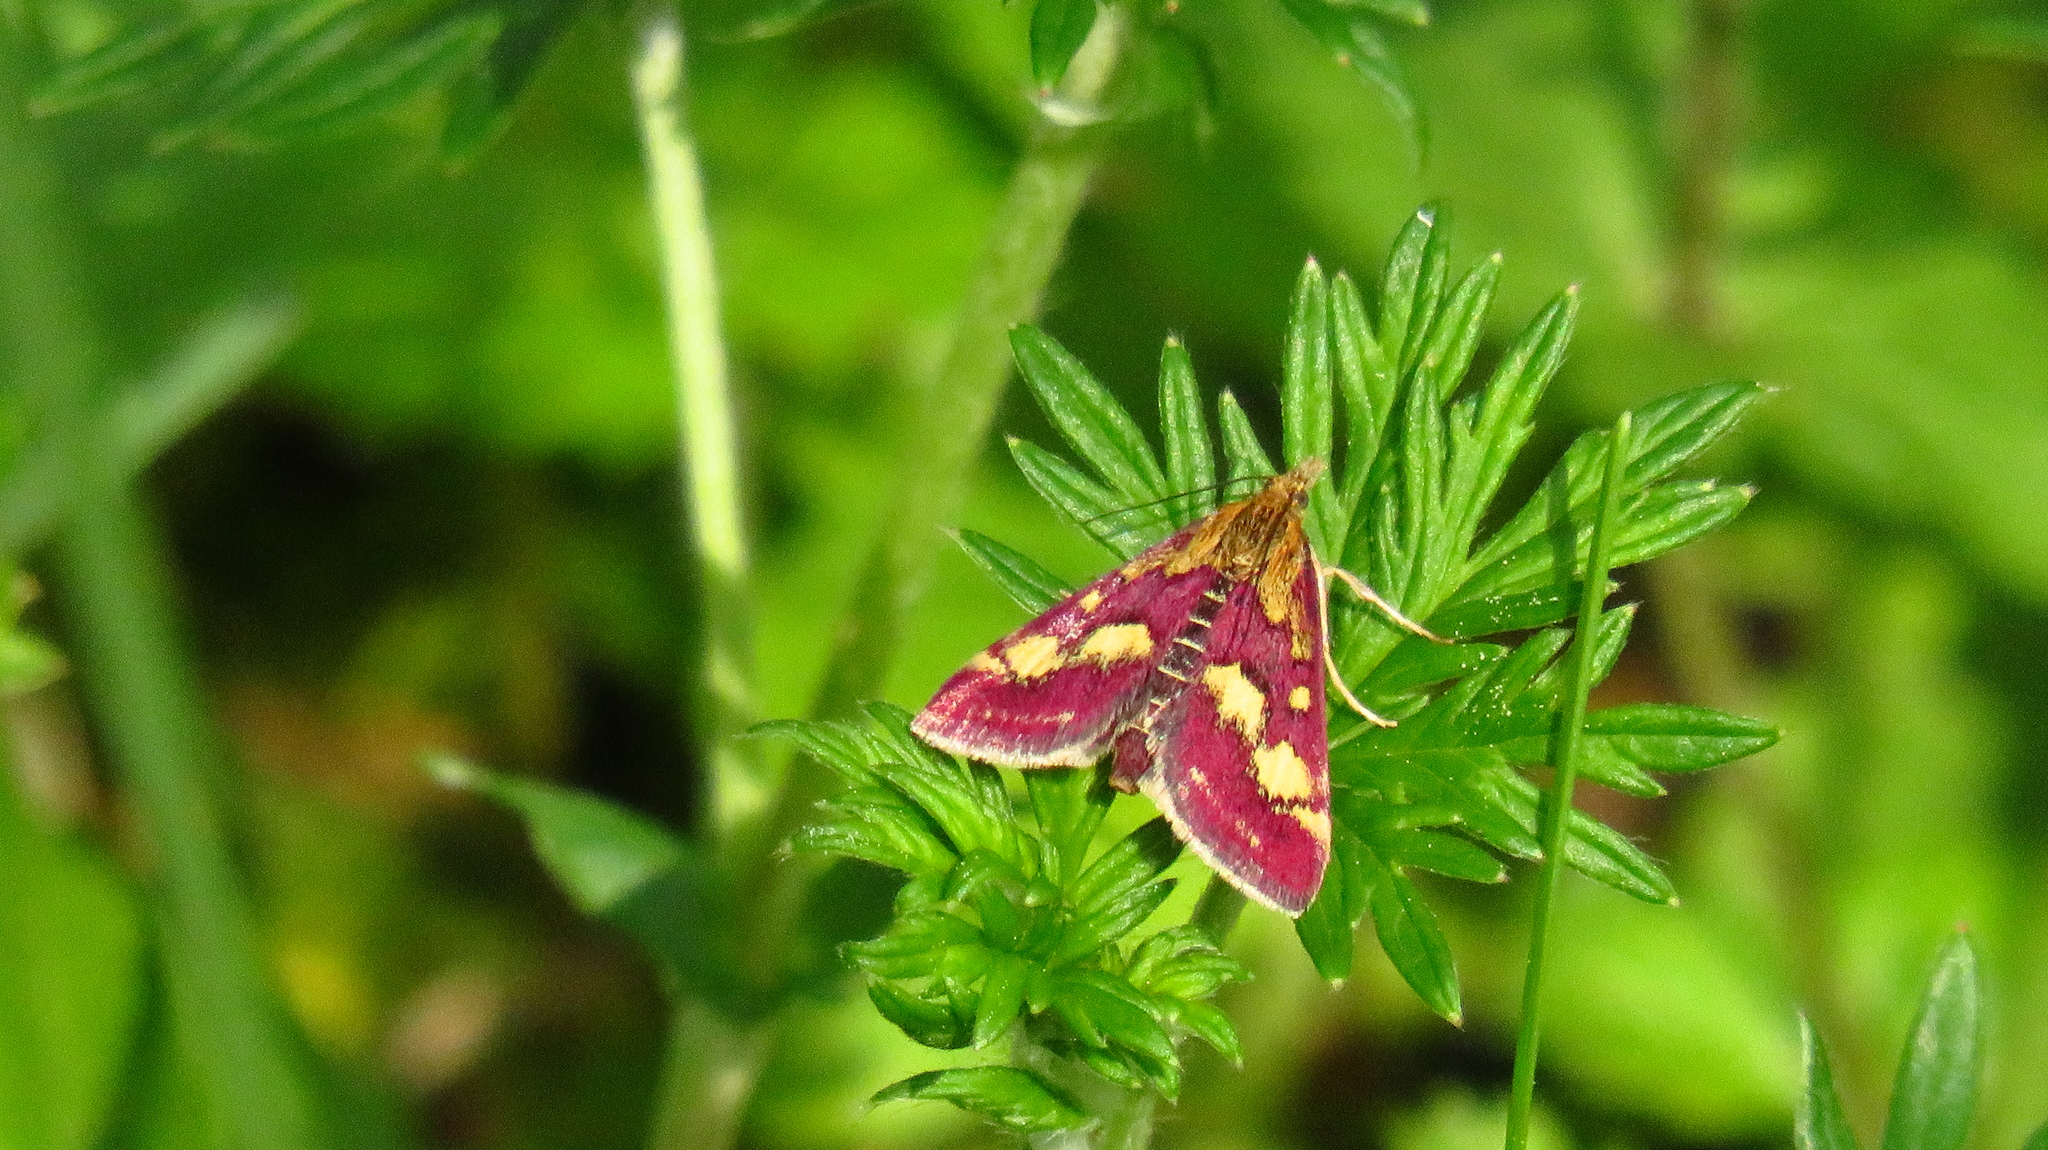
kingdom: Animalia
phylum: Arthropoda
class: Insecta
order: Lepidoptera
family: Crambidae
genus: Pyrausta
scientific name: Pyrausta purpuralis
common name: Common purple & gold
